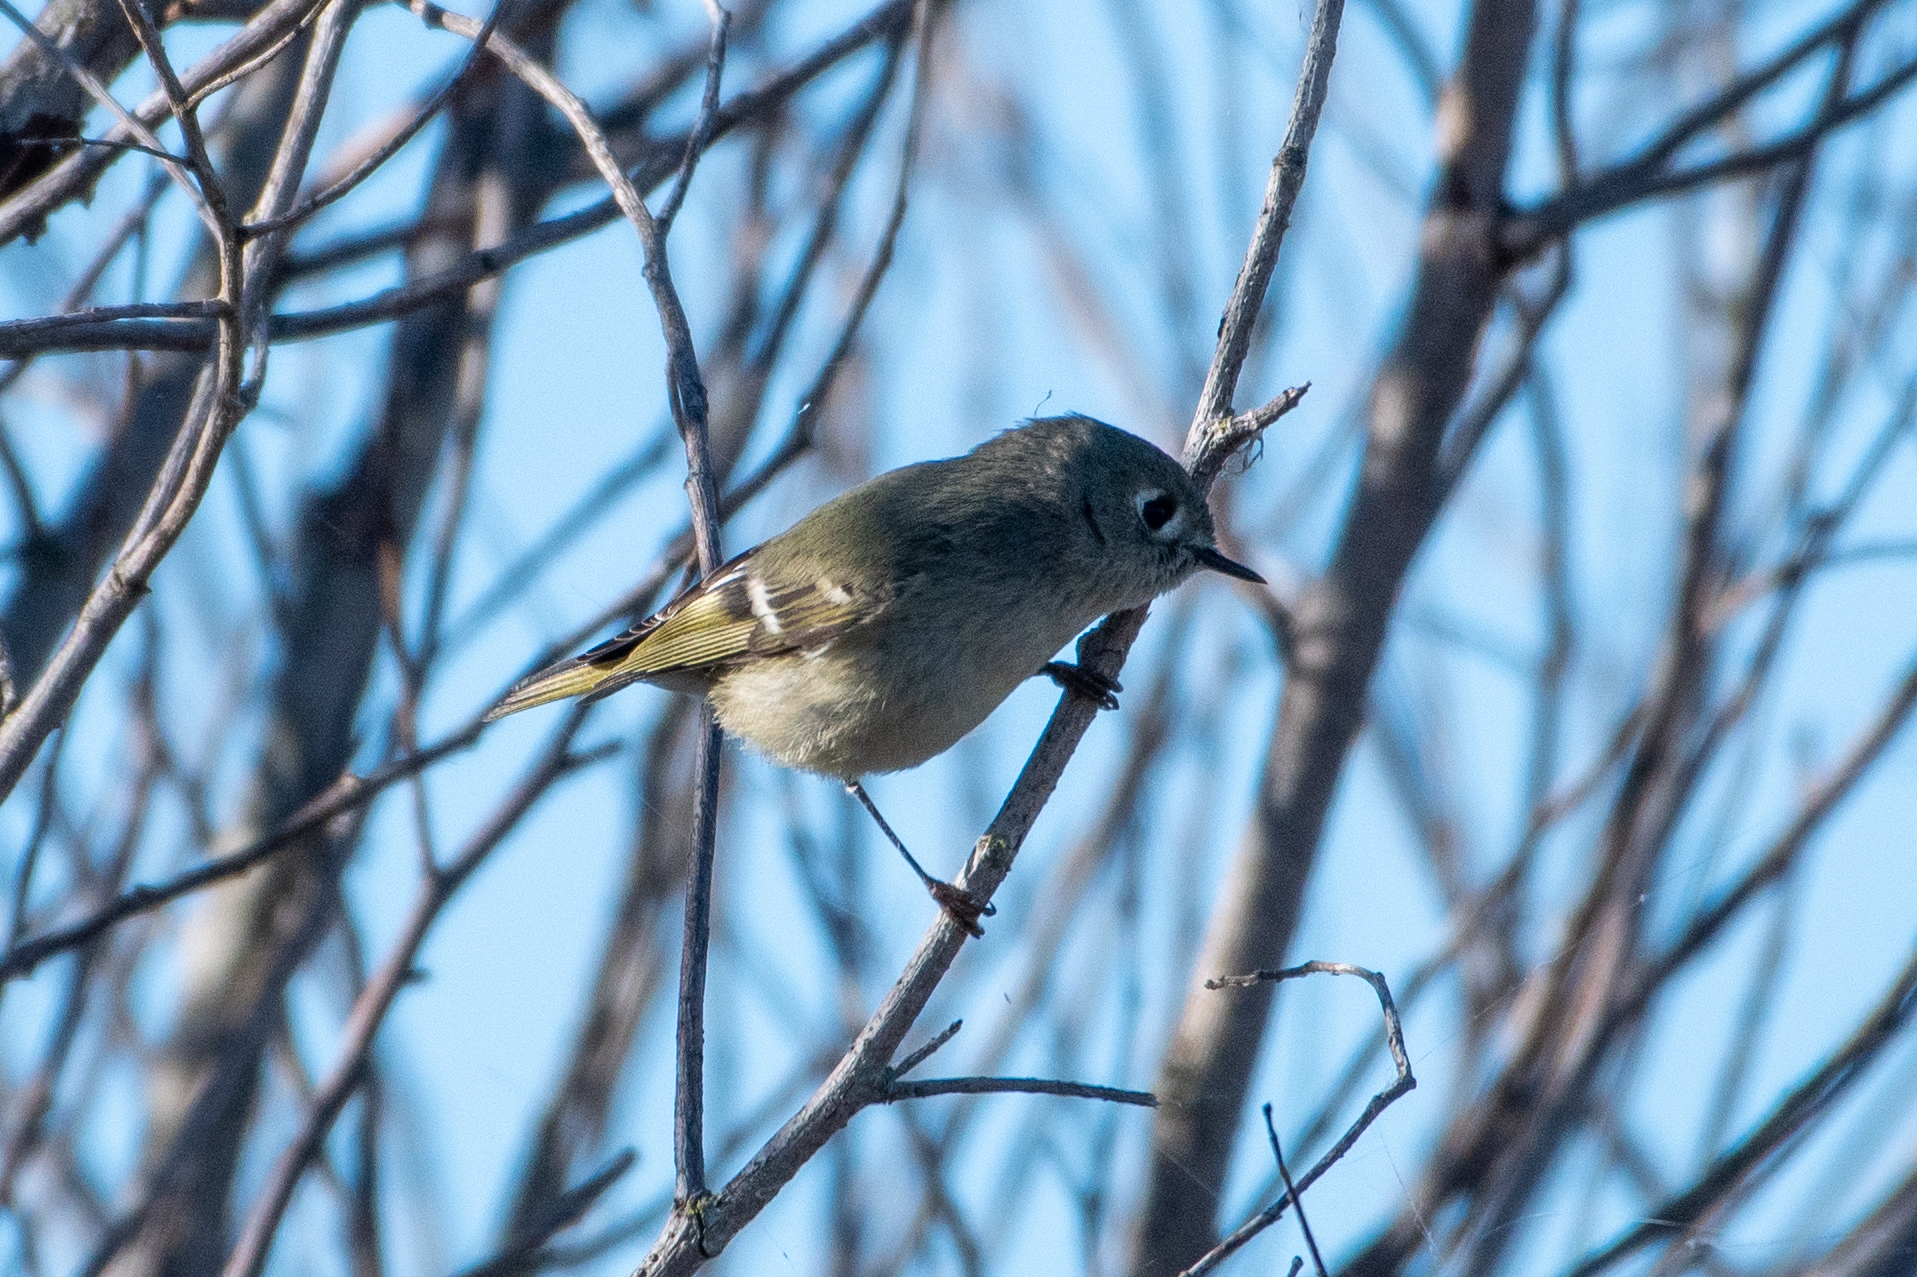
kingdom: Animalia
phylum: Chordata
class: Aves
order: Passeriformes
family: Regulidae
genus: Regulus
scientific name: Regulus calendula
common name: Ruby-crowned kinglet
